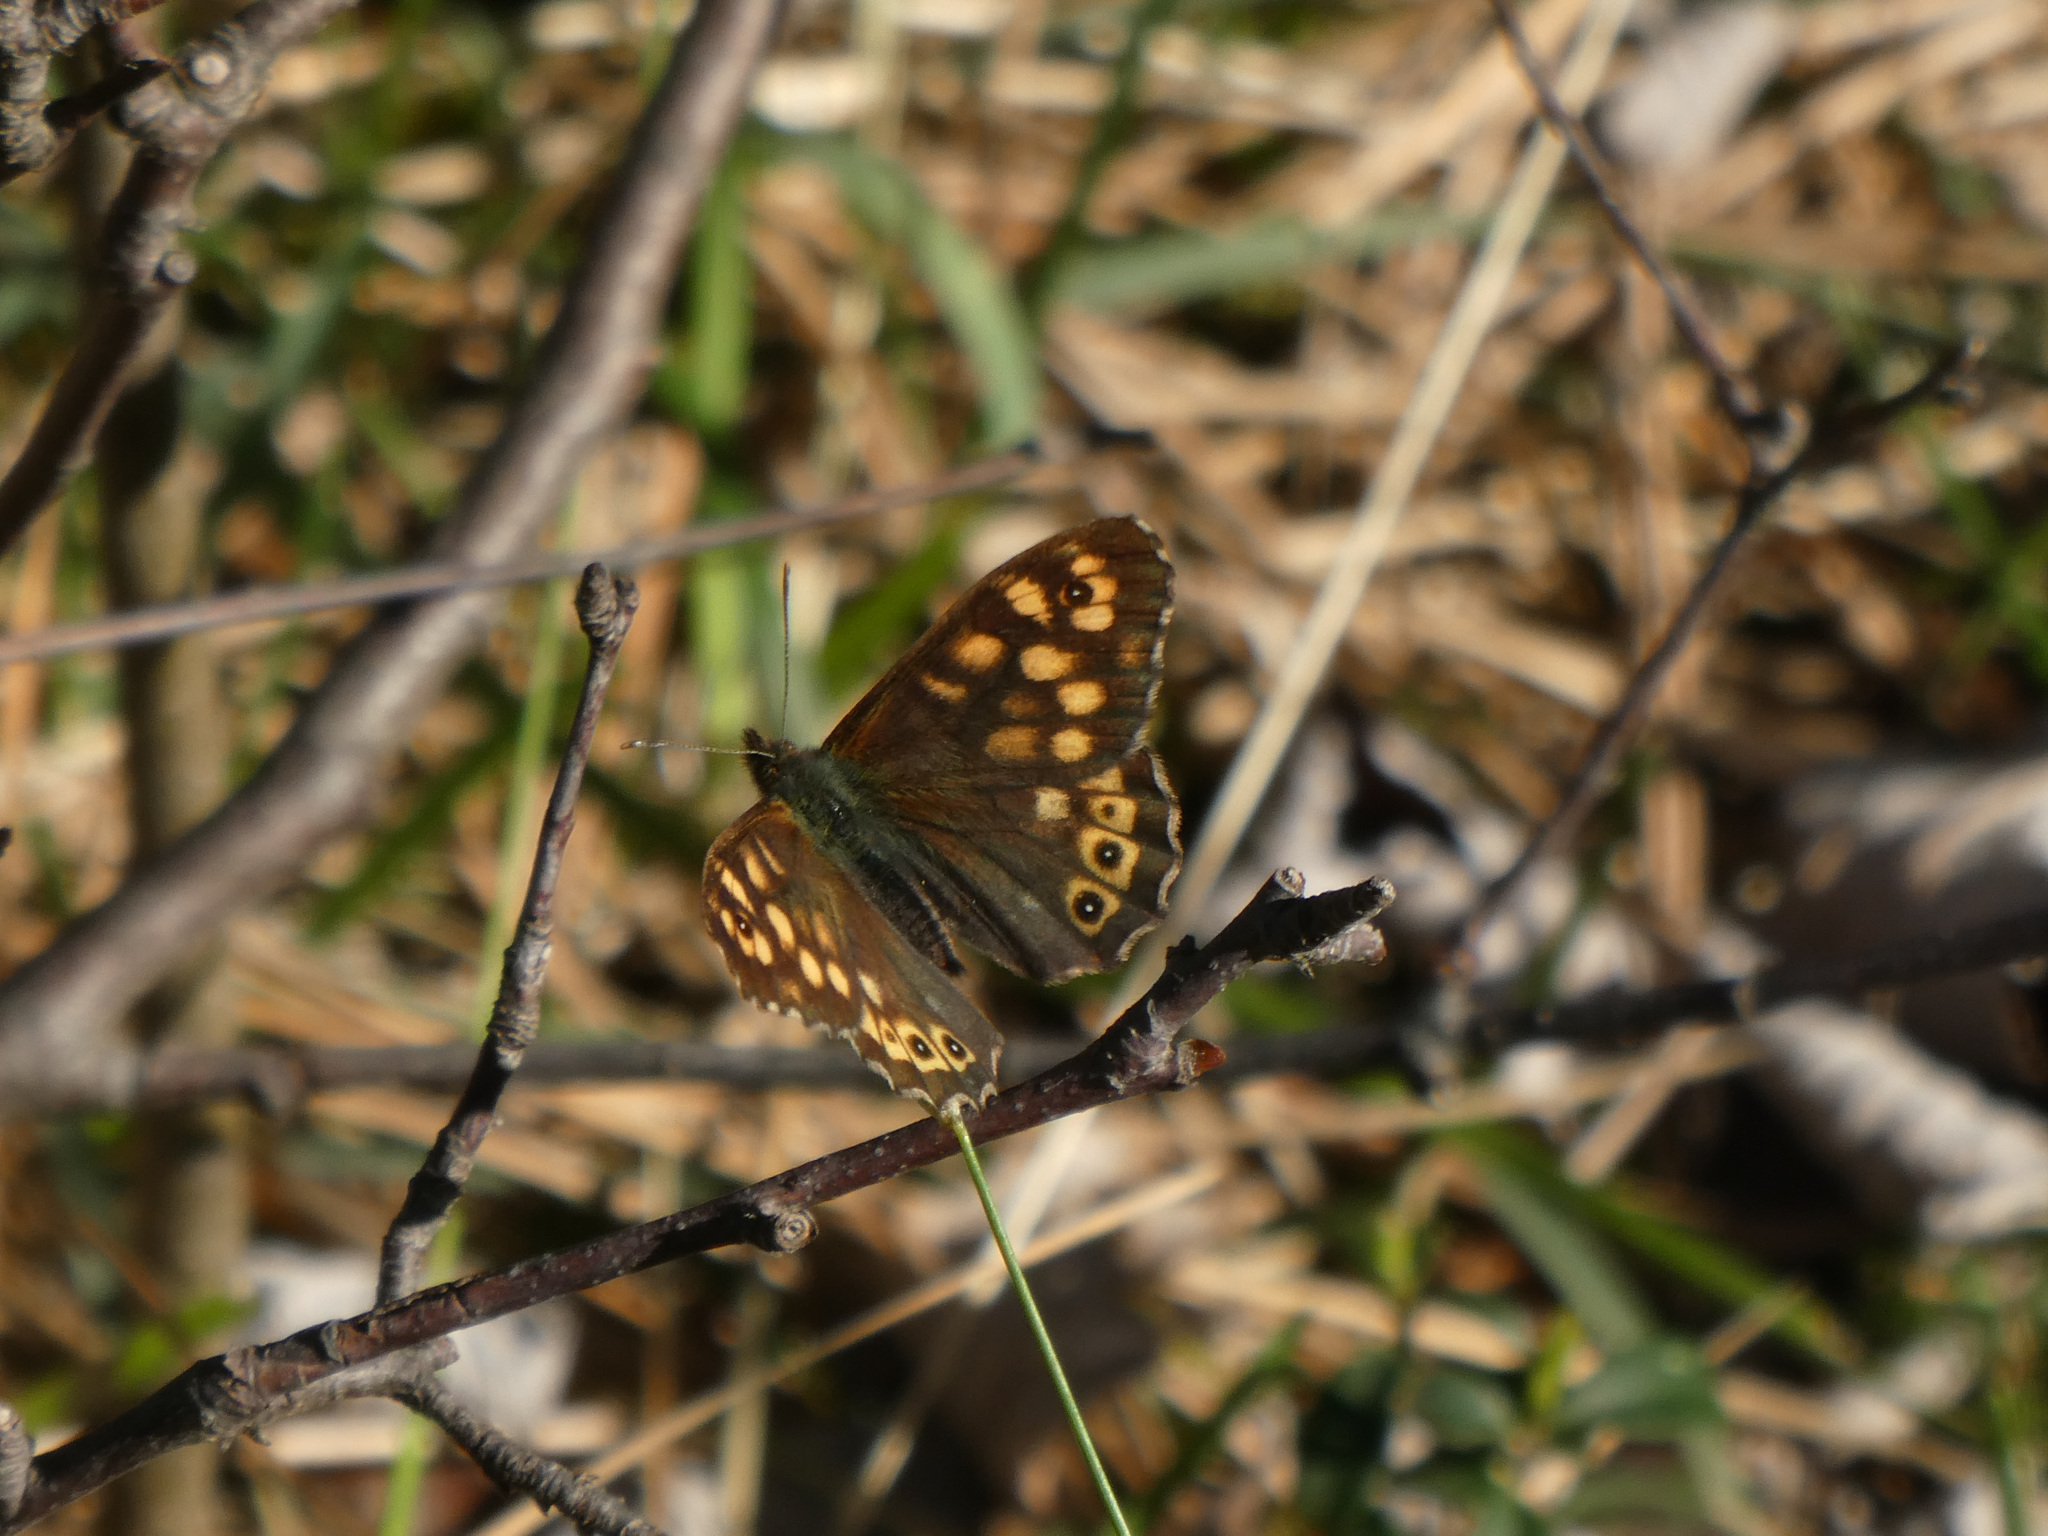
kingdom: Animalia
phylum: Arthropoda
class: Insecta
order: Lepidoptera
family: Nymphalidae
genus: Pararge
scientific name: Pararge aegeria
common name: Speckled wood
